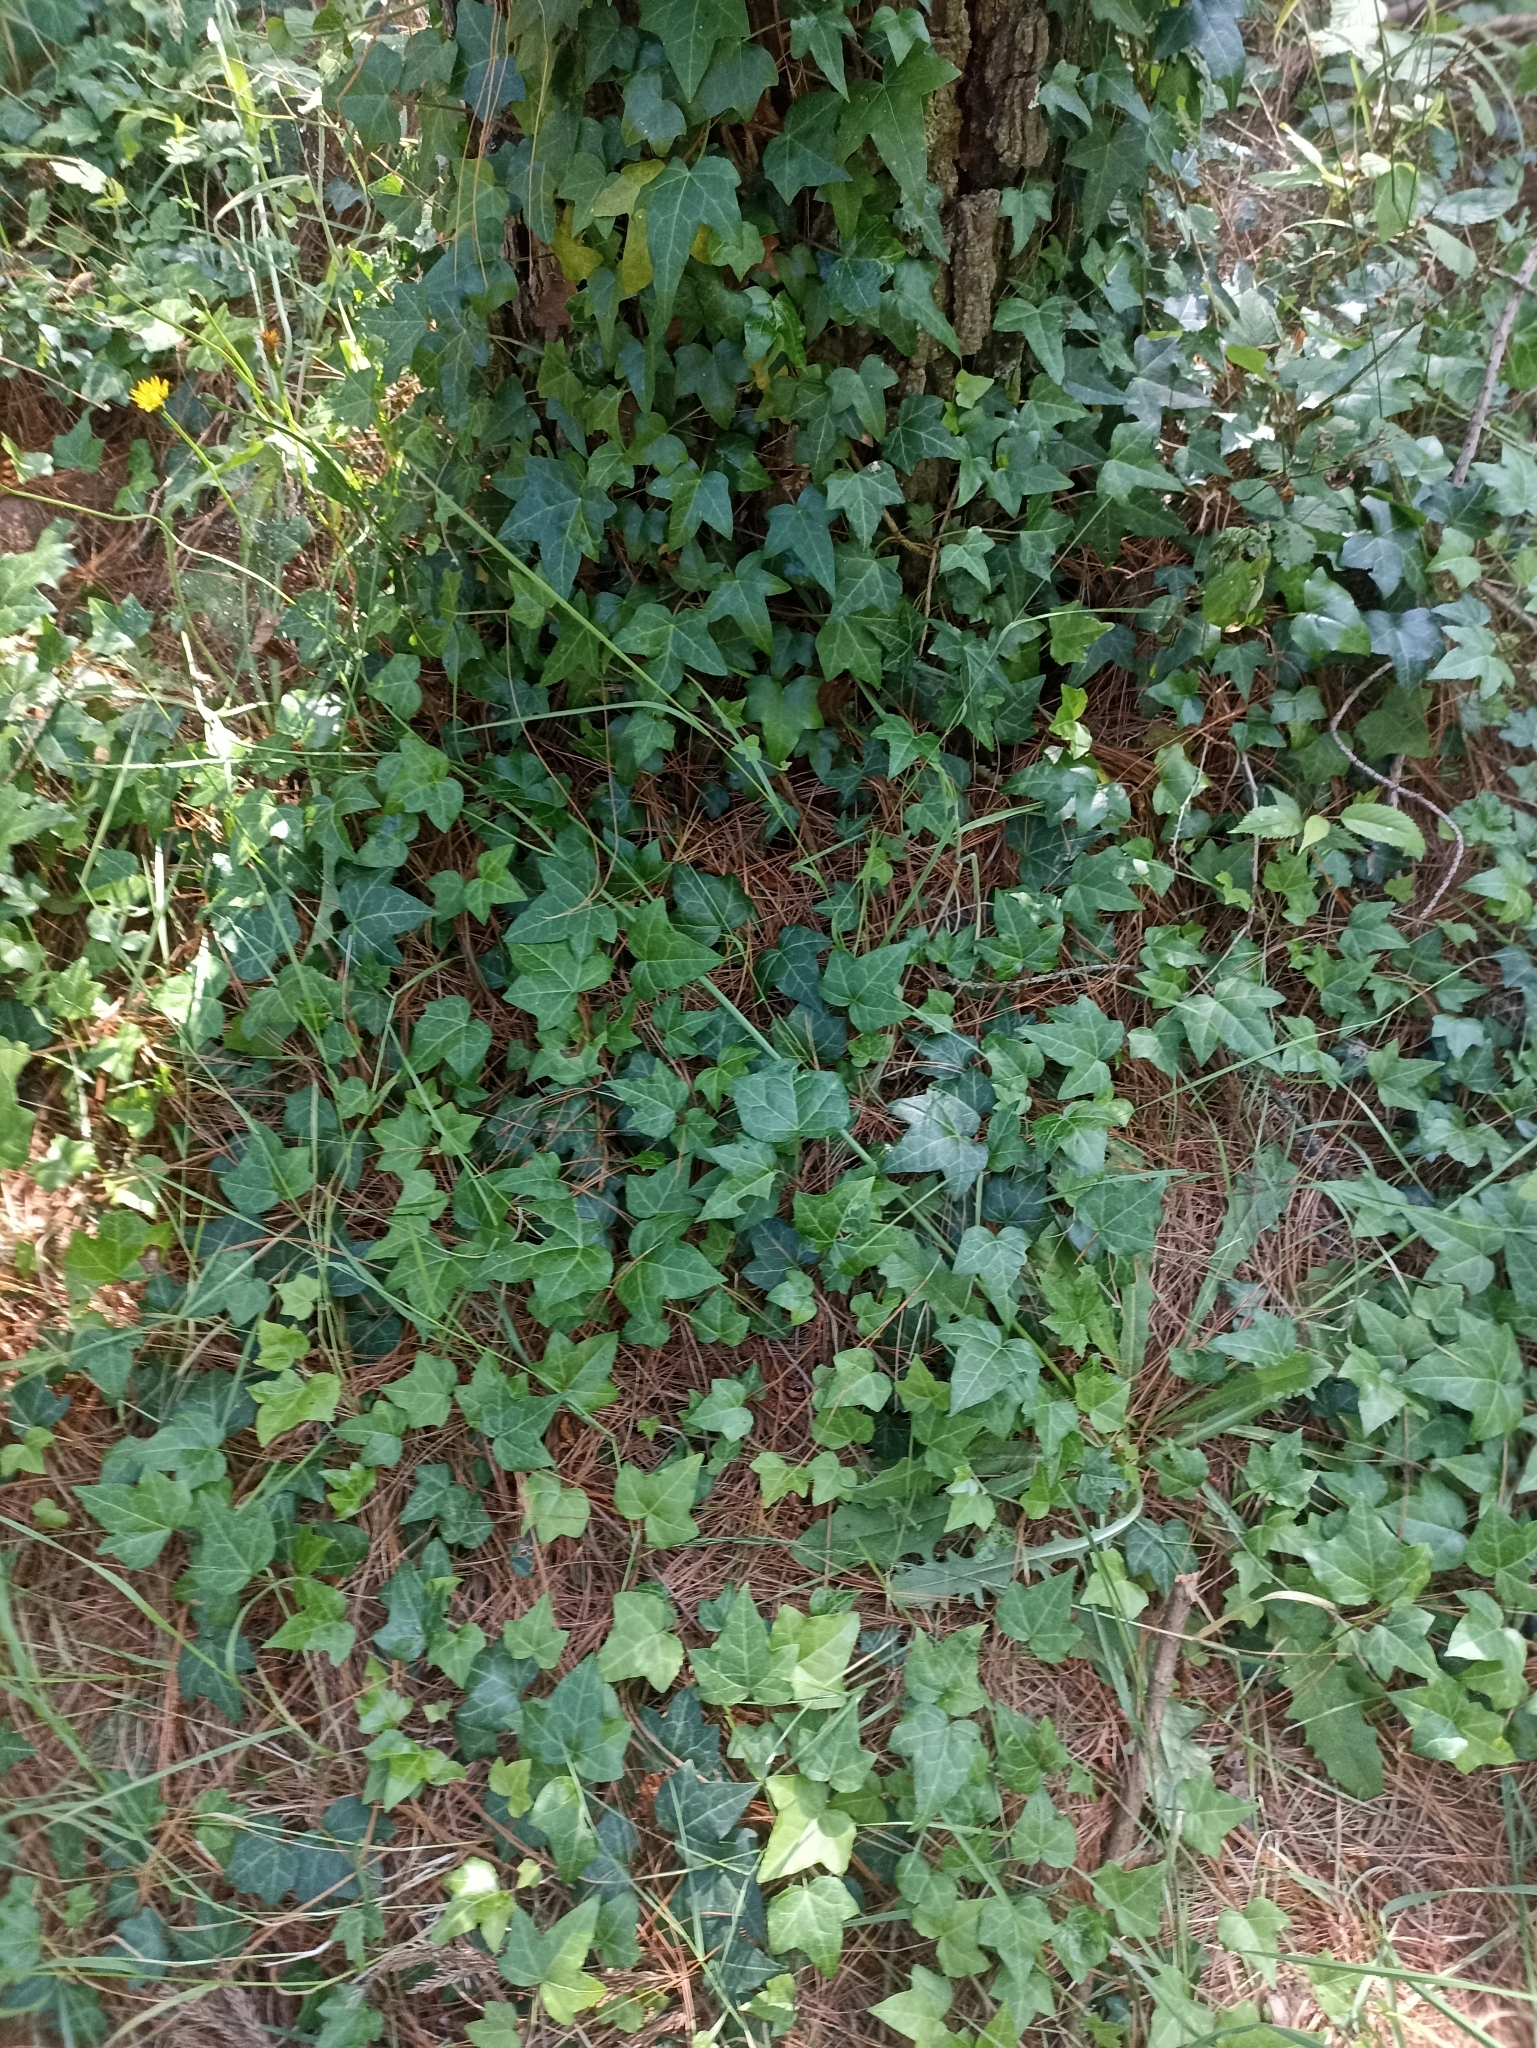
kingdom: Plantae
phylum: Tracheophyta
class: Magnoliopsida
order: Apiales
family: Araliaceae
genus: Hedera
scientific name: Hedera helix
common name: Ivy
